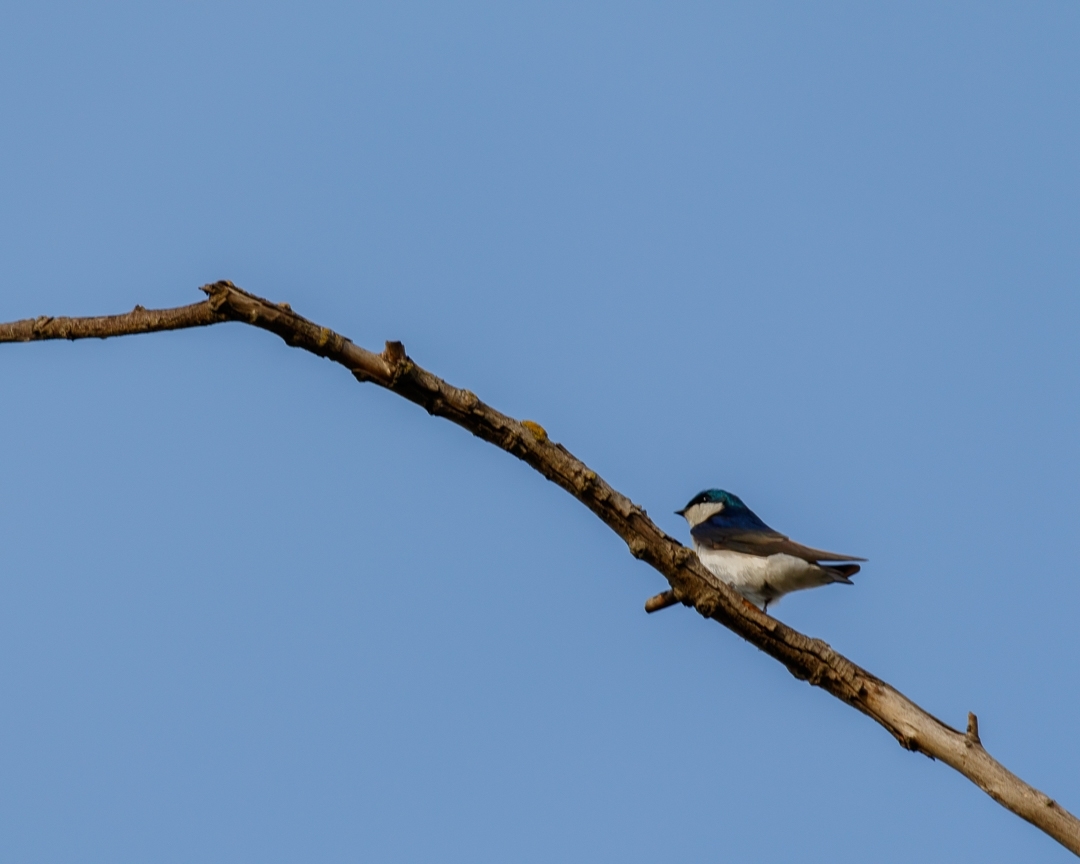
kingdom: Animalia
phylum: Chordata
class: Aves
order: Passeriformes
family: Hirundinidae
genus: Tachycineta
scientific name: Tachycineta bicolor
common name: Tree swallow
